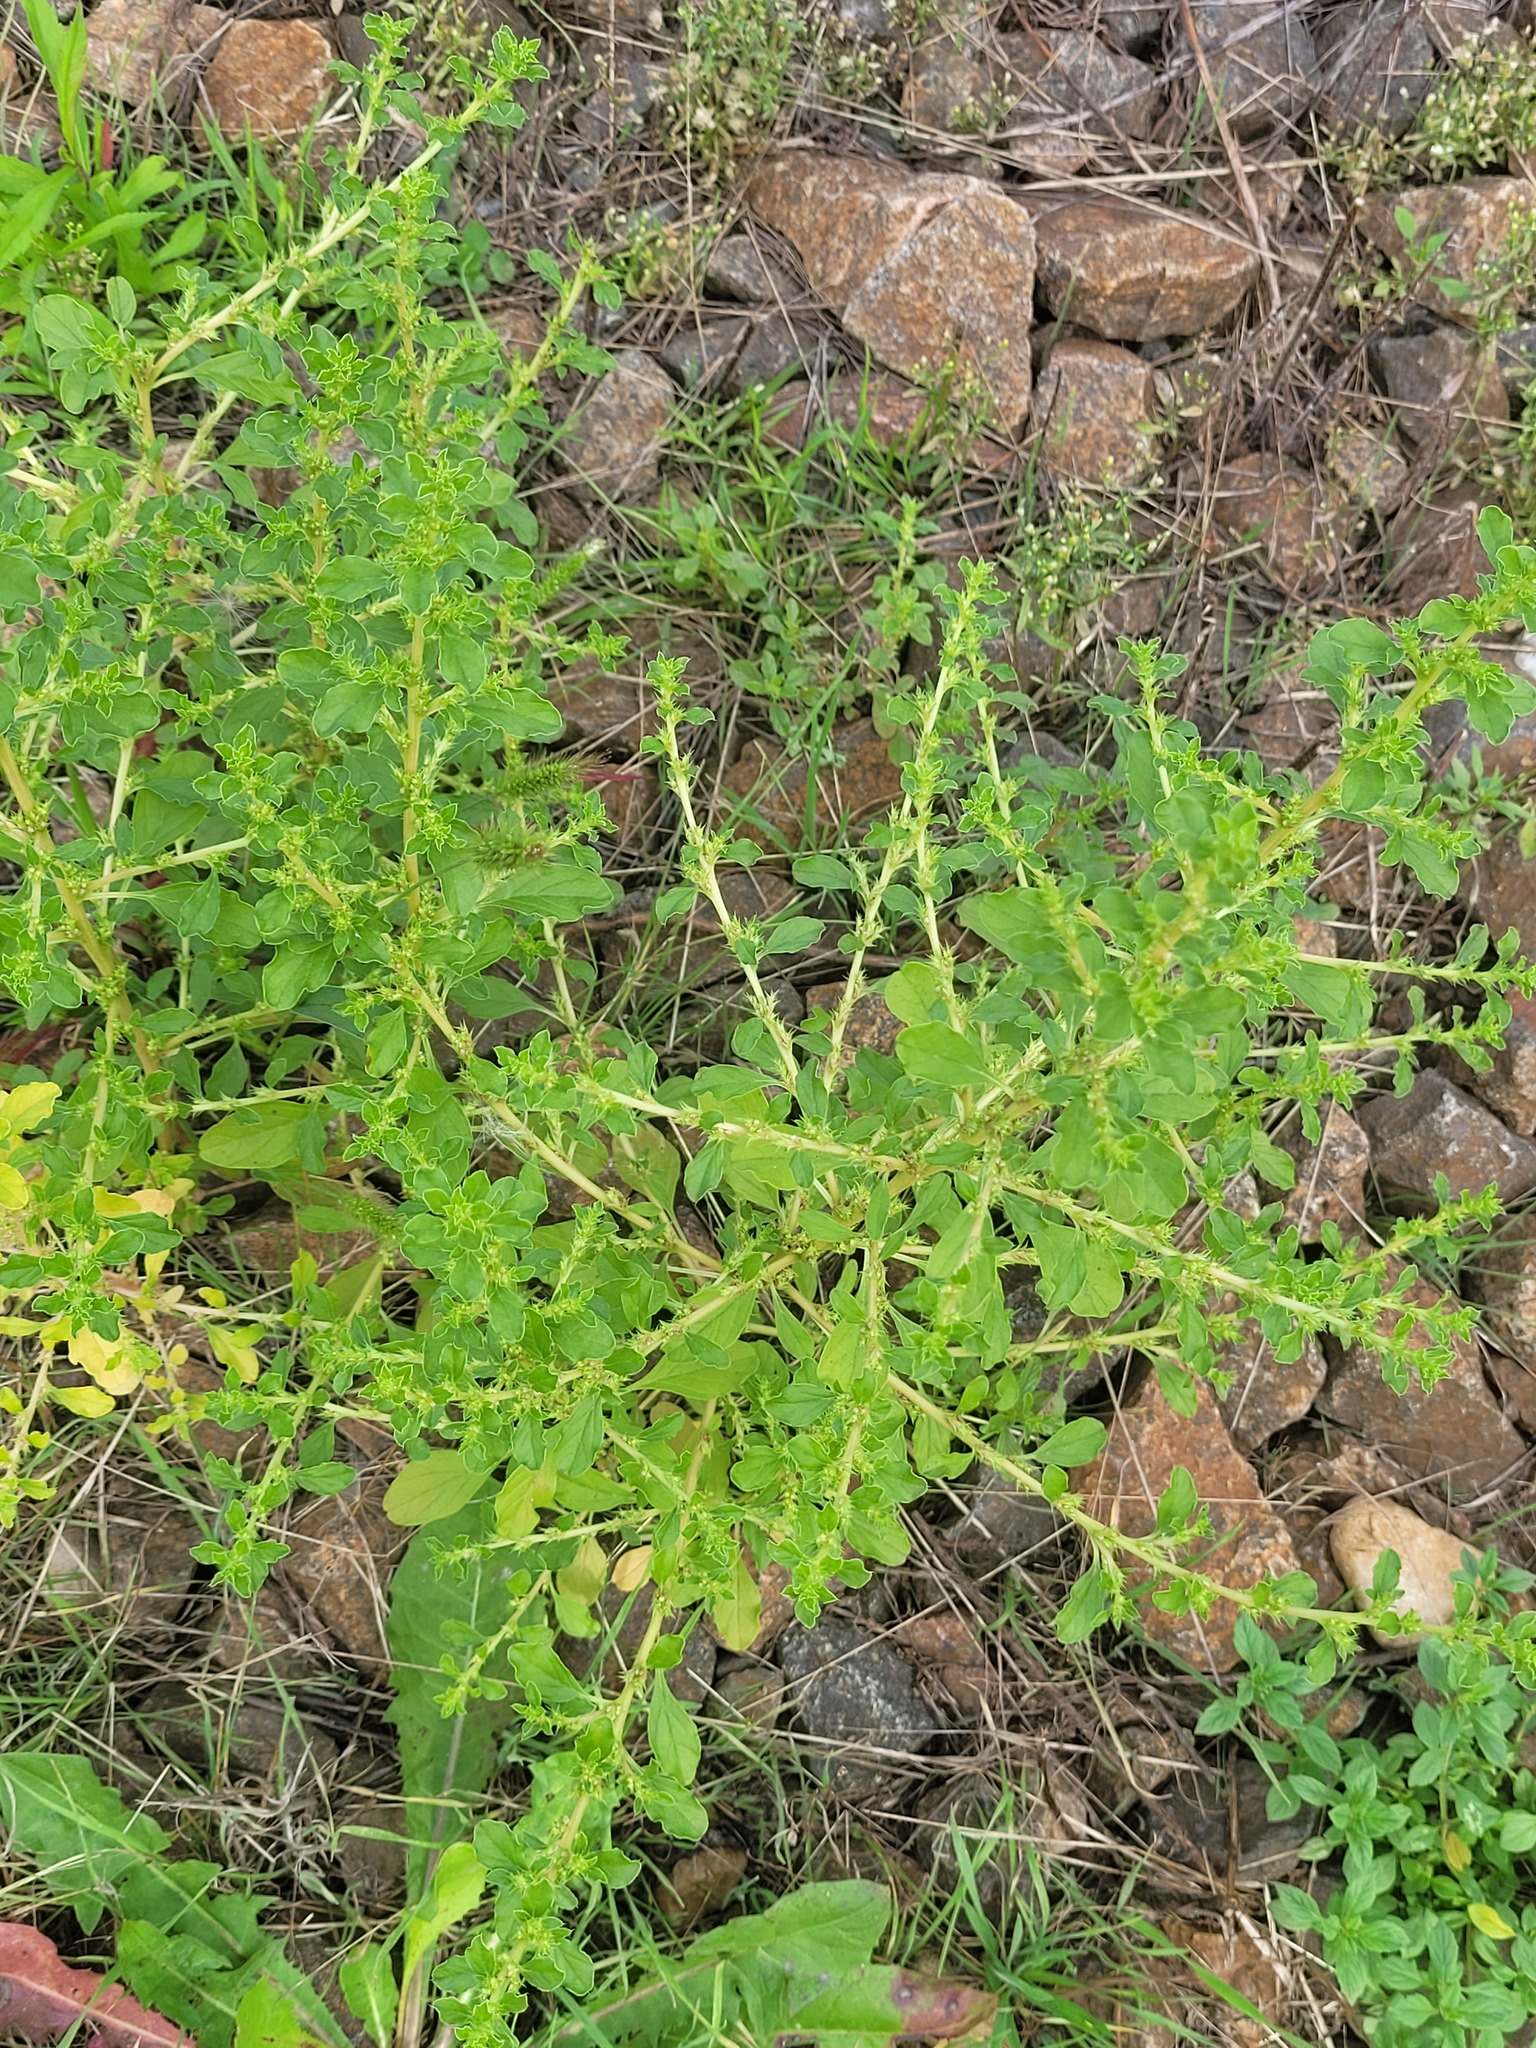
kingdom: Plantae
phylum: Tracheophyta
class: Magnoliopsida
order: Caryophyllales
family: Amaranthaceae
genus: Amaranthus
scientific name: Amaranthus albus
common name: White pigweed
